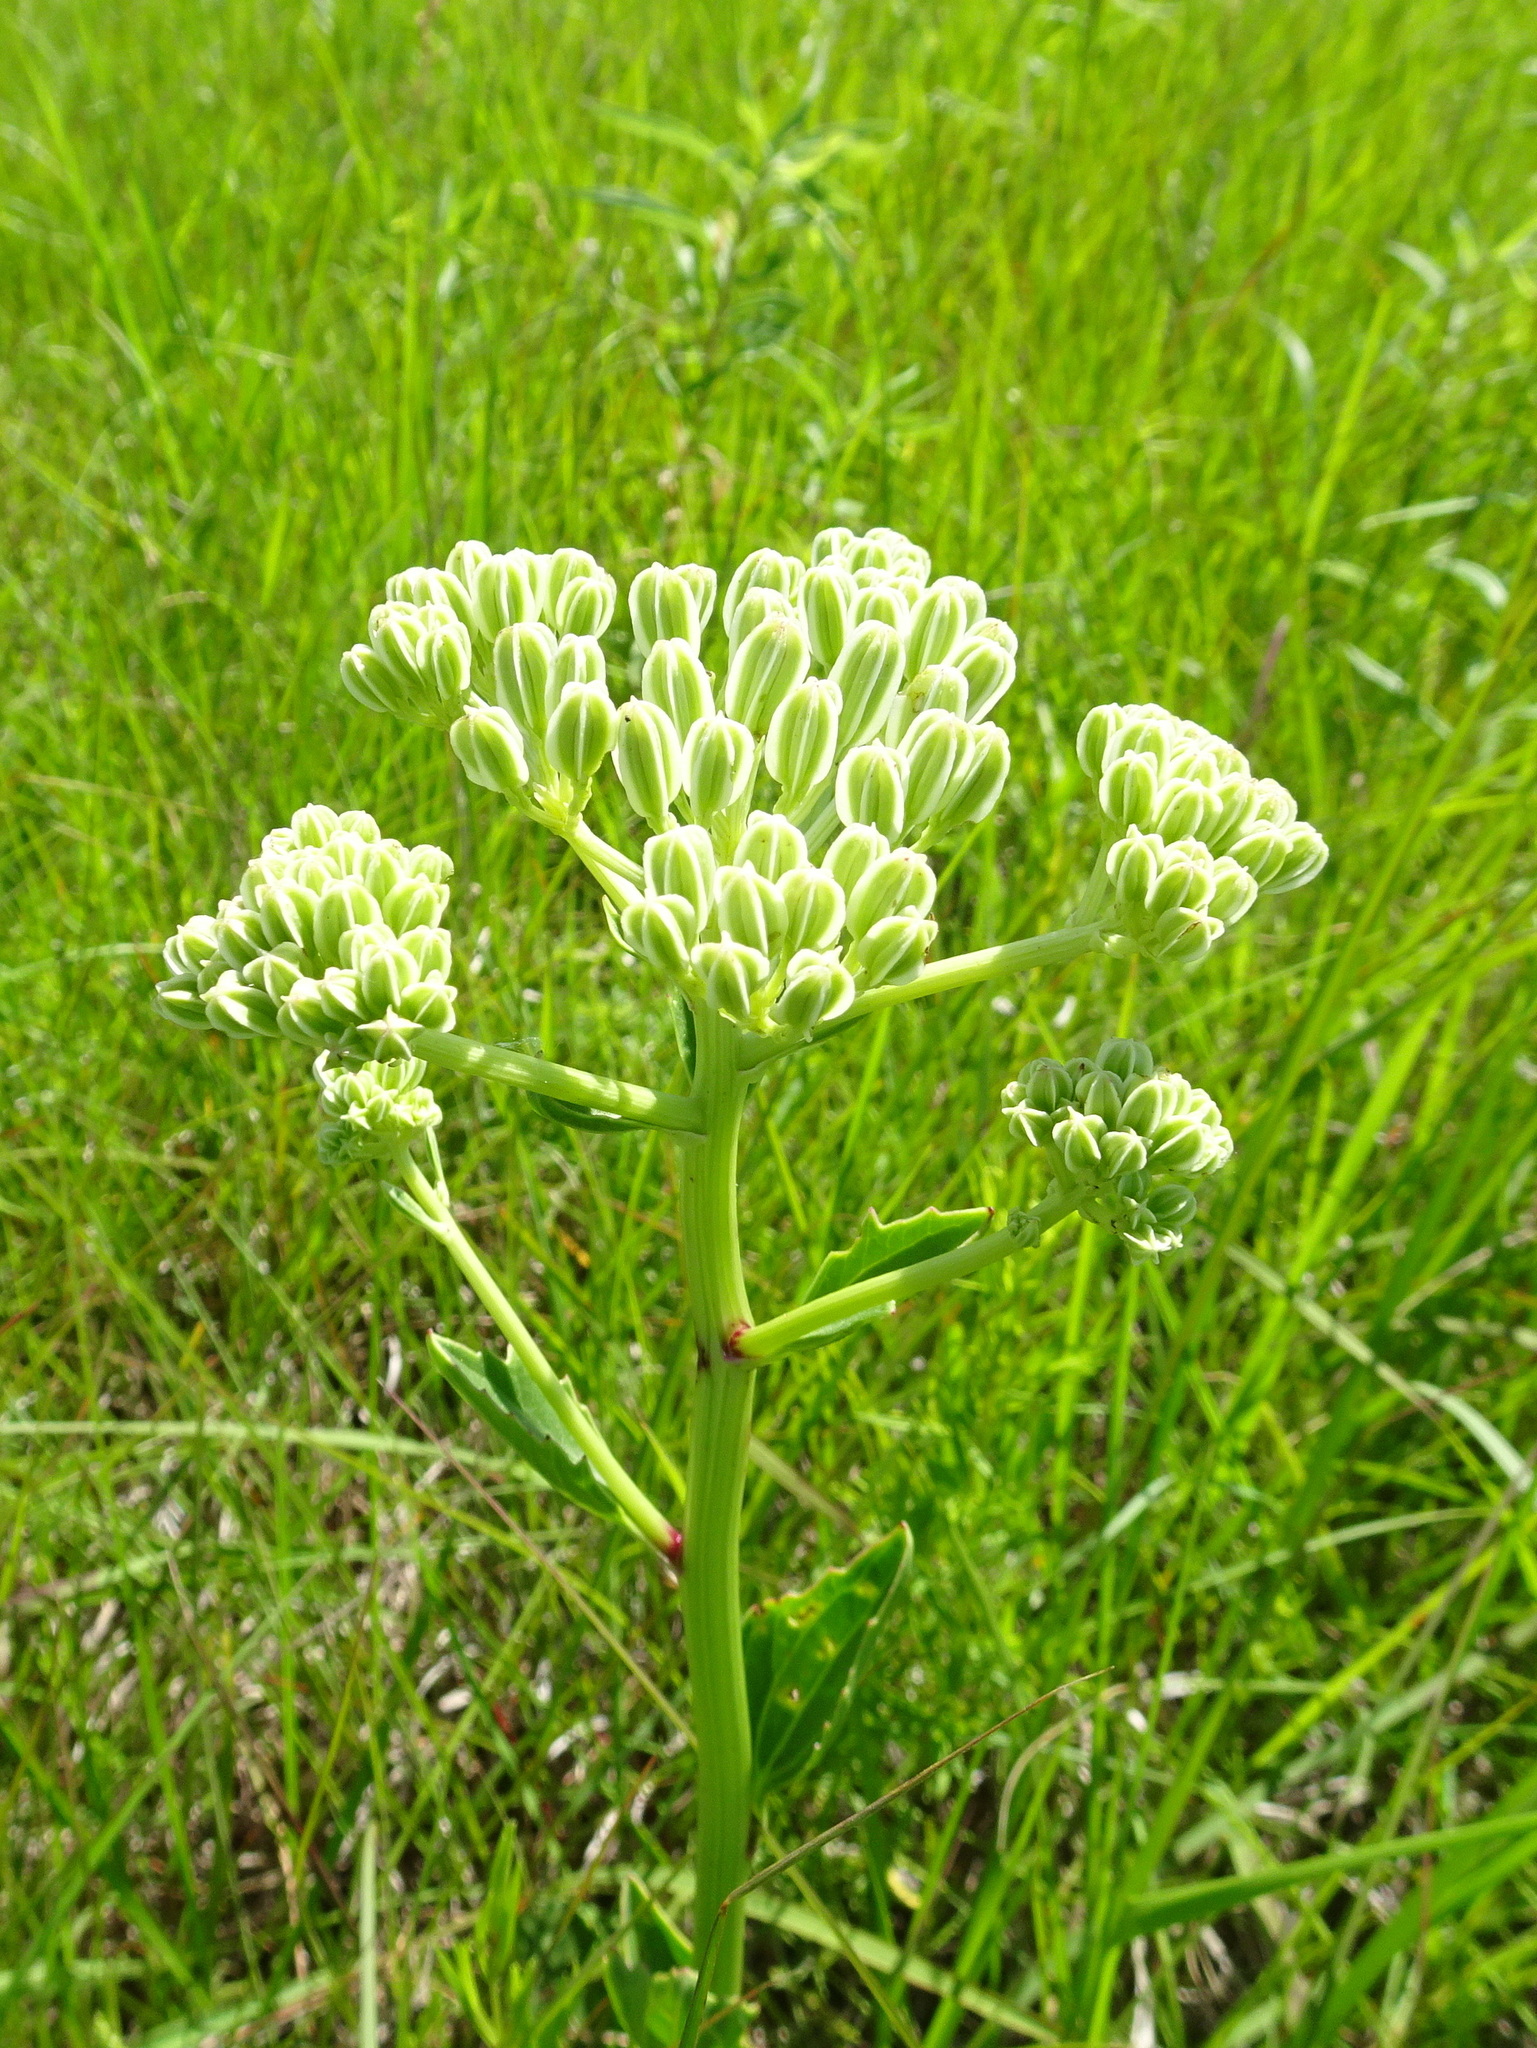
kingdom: Plantae
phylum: Tracheophyta
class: Magnoliopsida
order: Asterales
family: Asteraceae
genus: Arnoglossum
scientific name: Arnoglossum plantagineum
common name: Groove-stemmed indian-plantain
